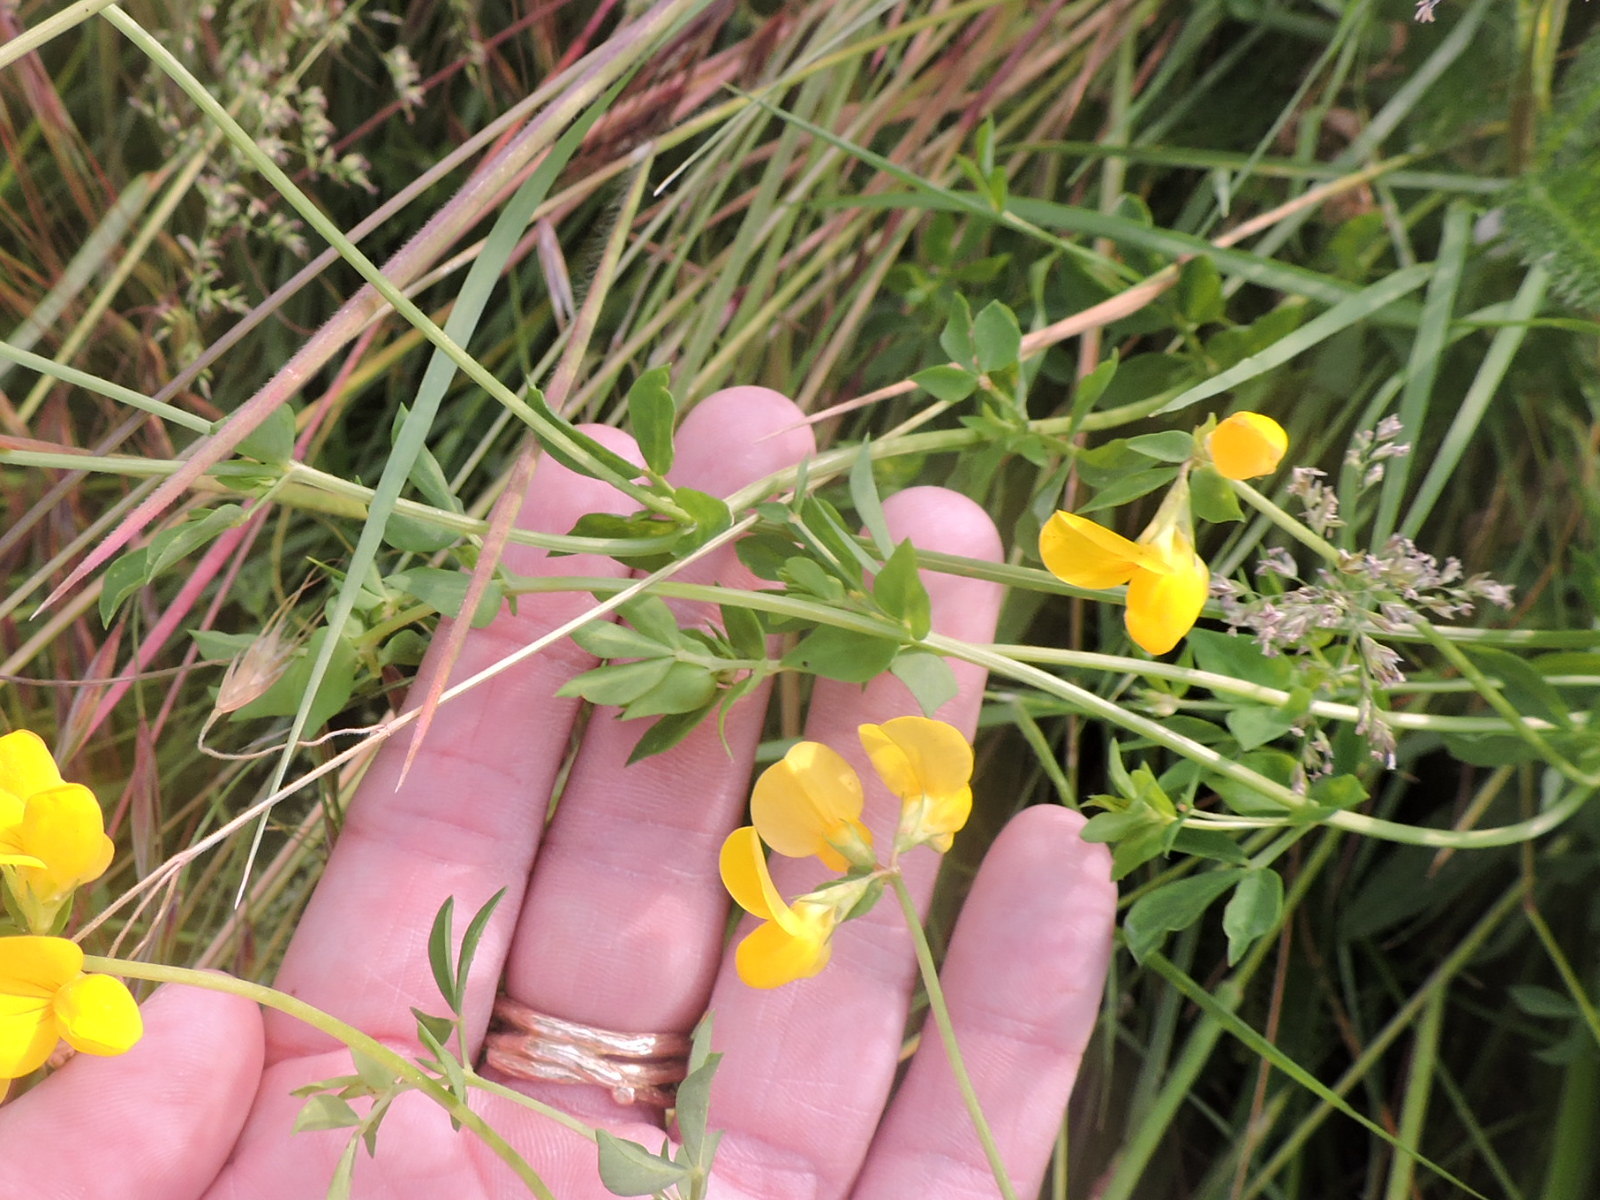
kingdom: Plantae
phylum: Tracheophyta
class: Magnoliopsida
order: Fabales
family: Fabaceae
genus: Lotus
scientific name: Lotus corniculatus
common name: Common bird's-foot-trefoil
